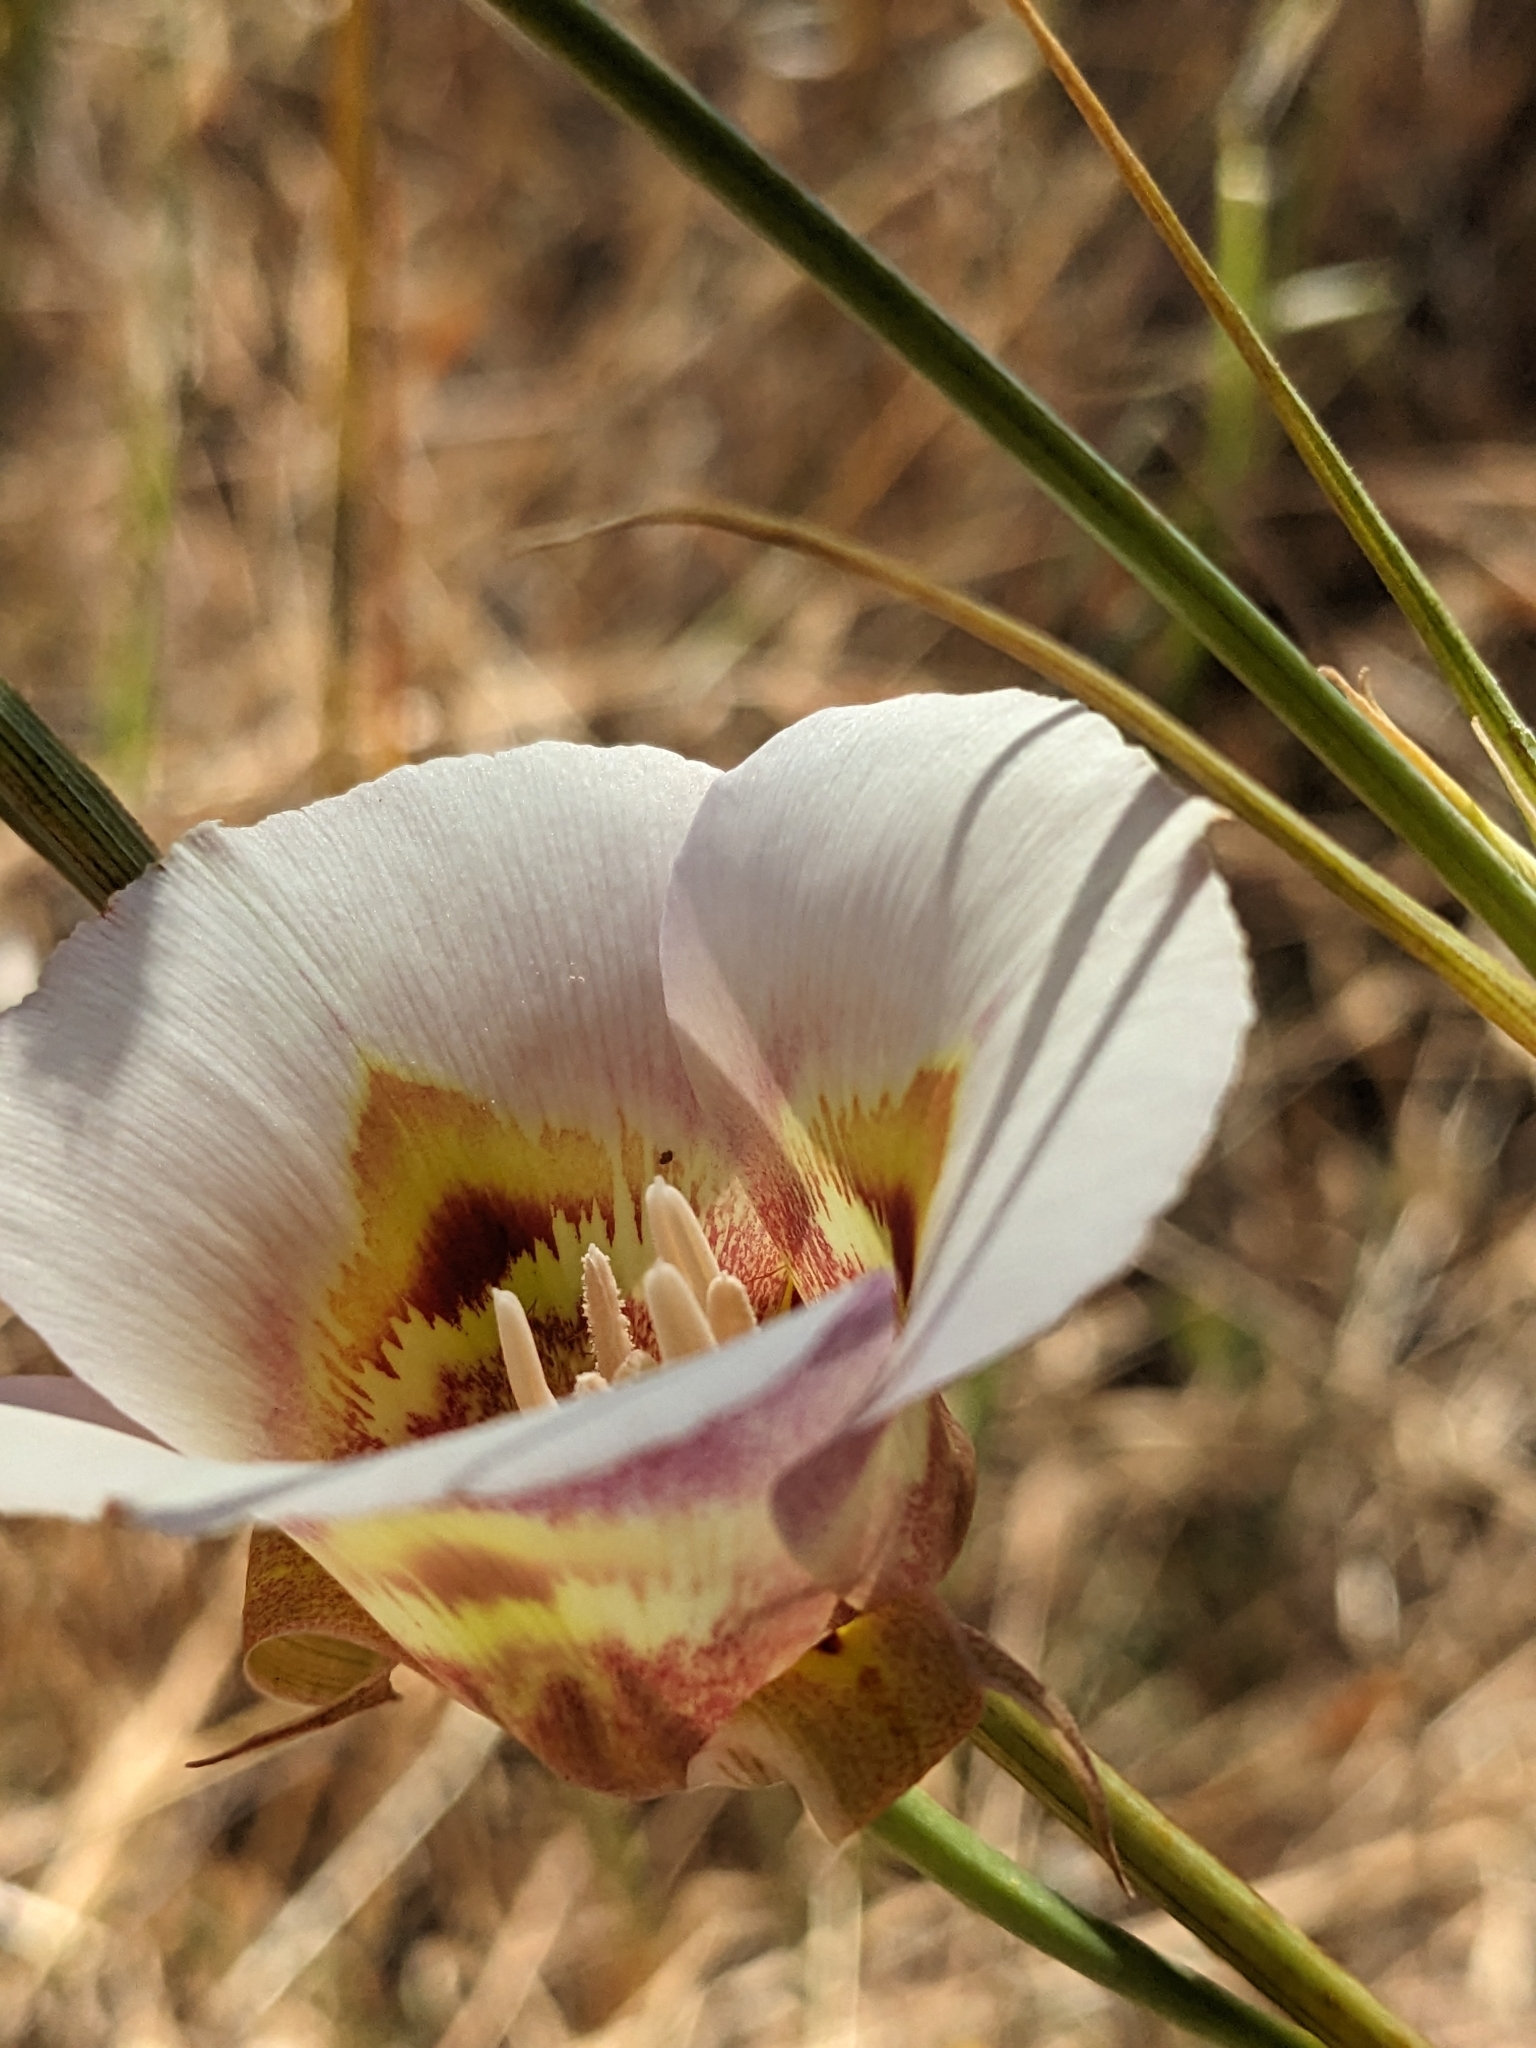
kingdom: Plantae
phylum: Tracheophyta
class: Liliopsida
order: Liliales
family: Liliaceae
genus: Calochortus
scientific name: Calochortus argillosus
